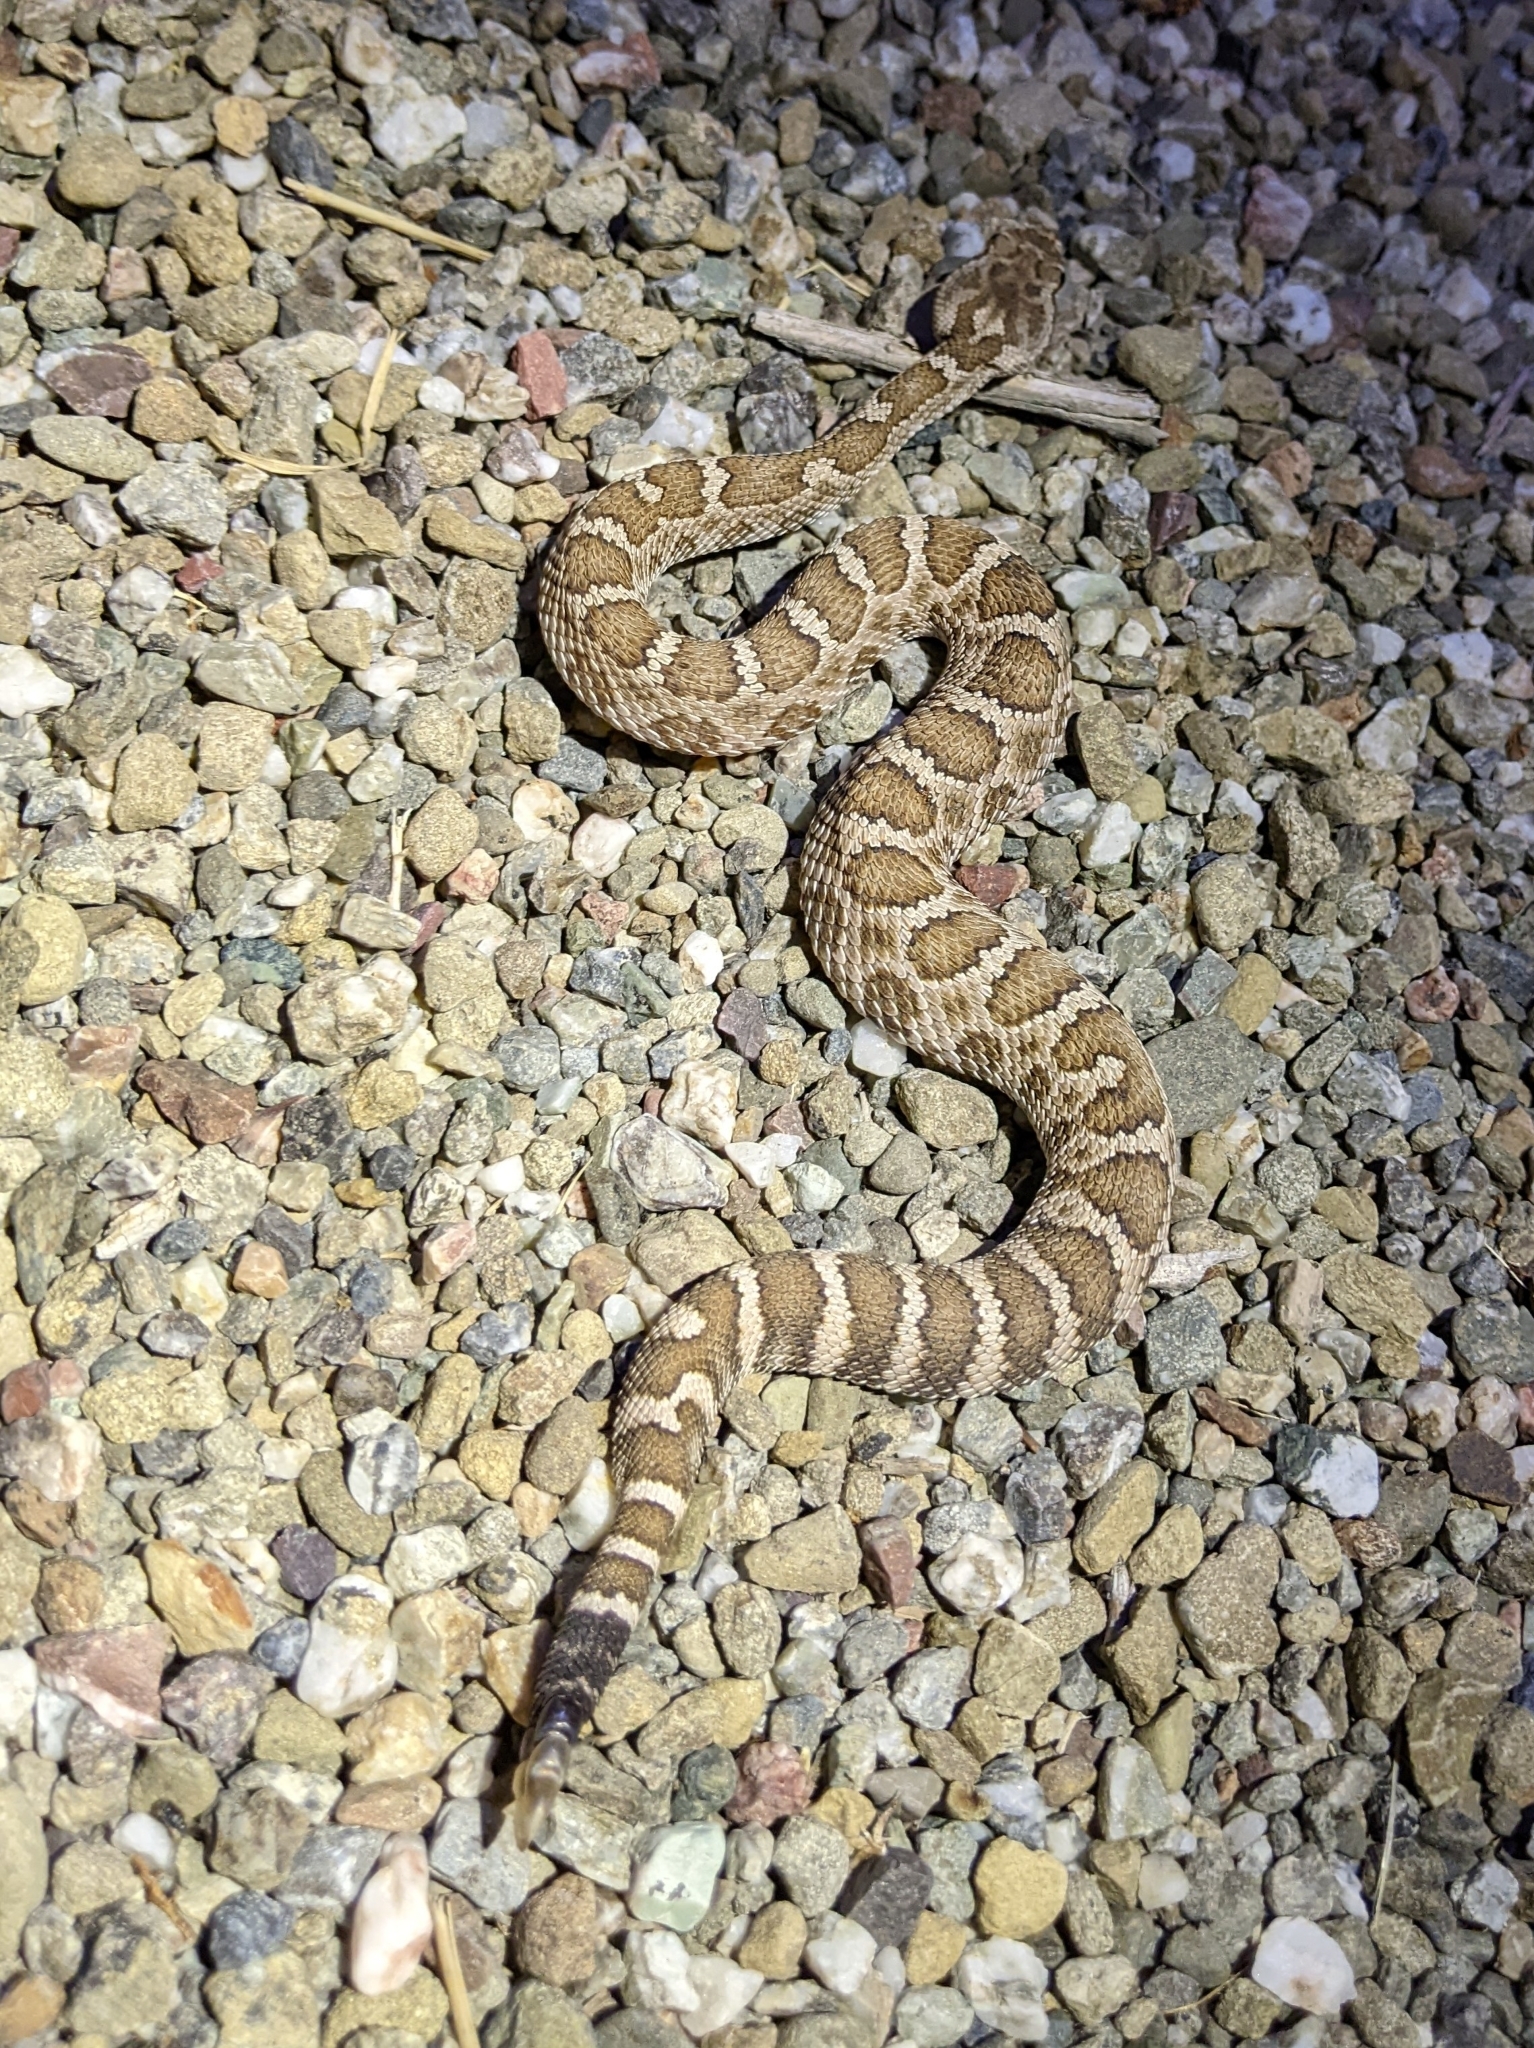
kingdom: Animalia
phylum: Chordata
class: Squamata
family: Viperidae
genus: Crotalus
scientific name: Crotalus oreganus
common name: Abyssus
